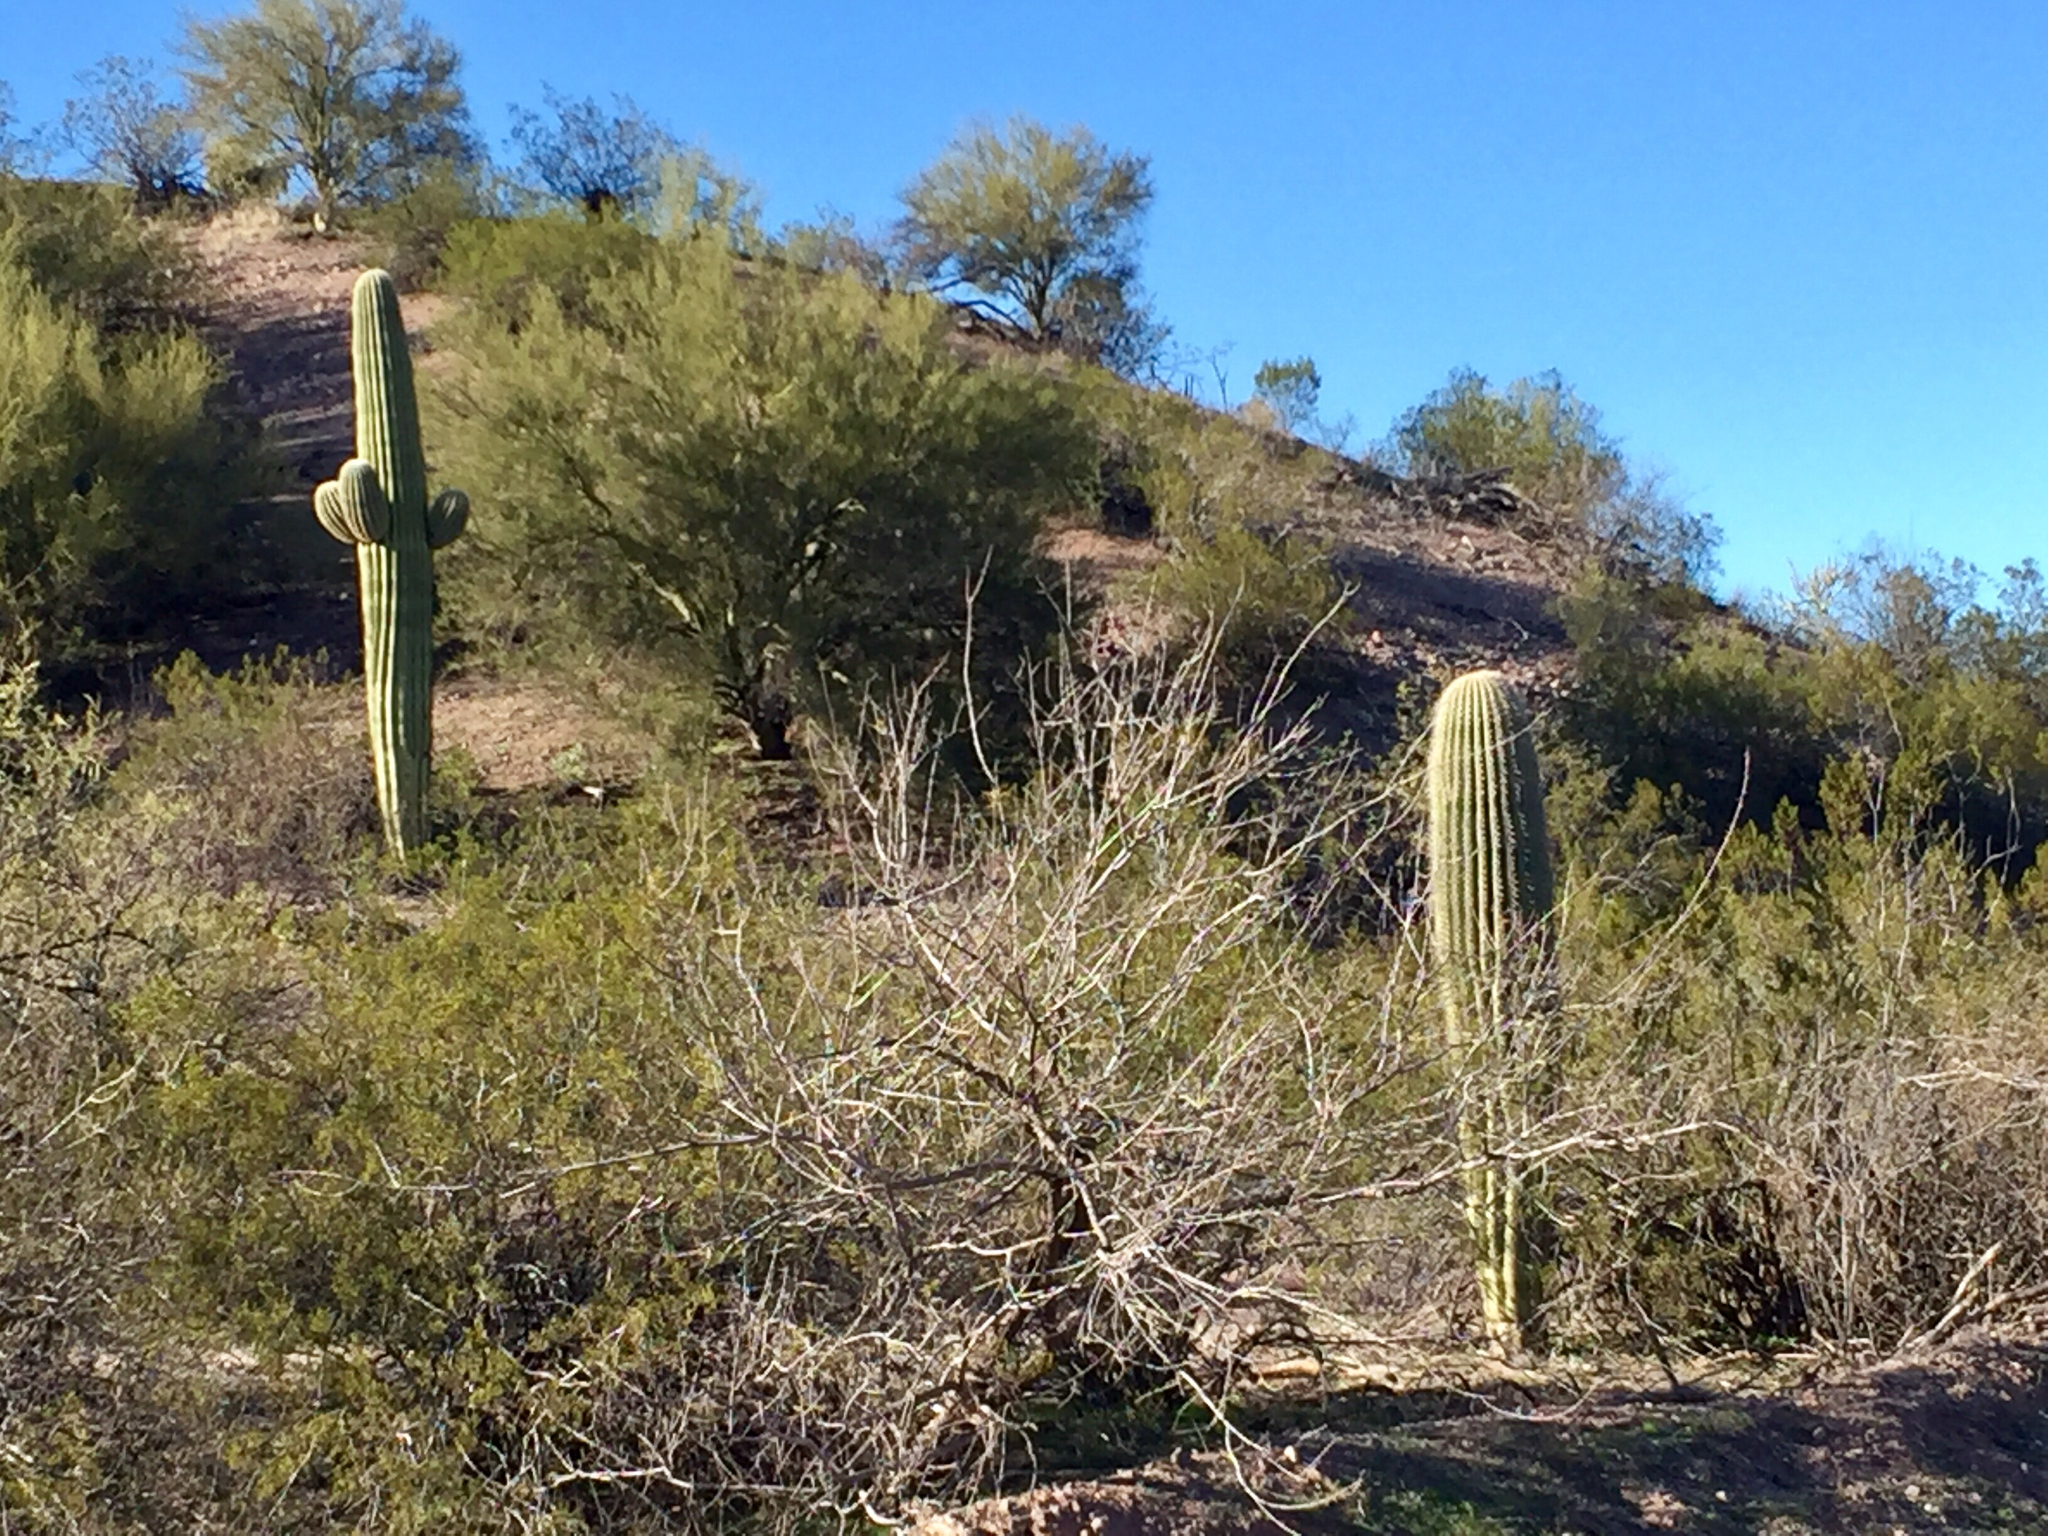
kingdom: Plantae
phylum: Tracheophyta
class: Magnoliopsida
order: Caryophyllales
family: Cactaceae
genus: Carnegiea
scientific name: Carnegiea gigantea
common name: Saguaro
